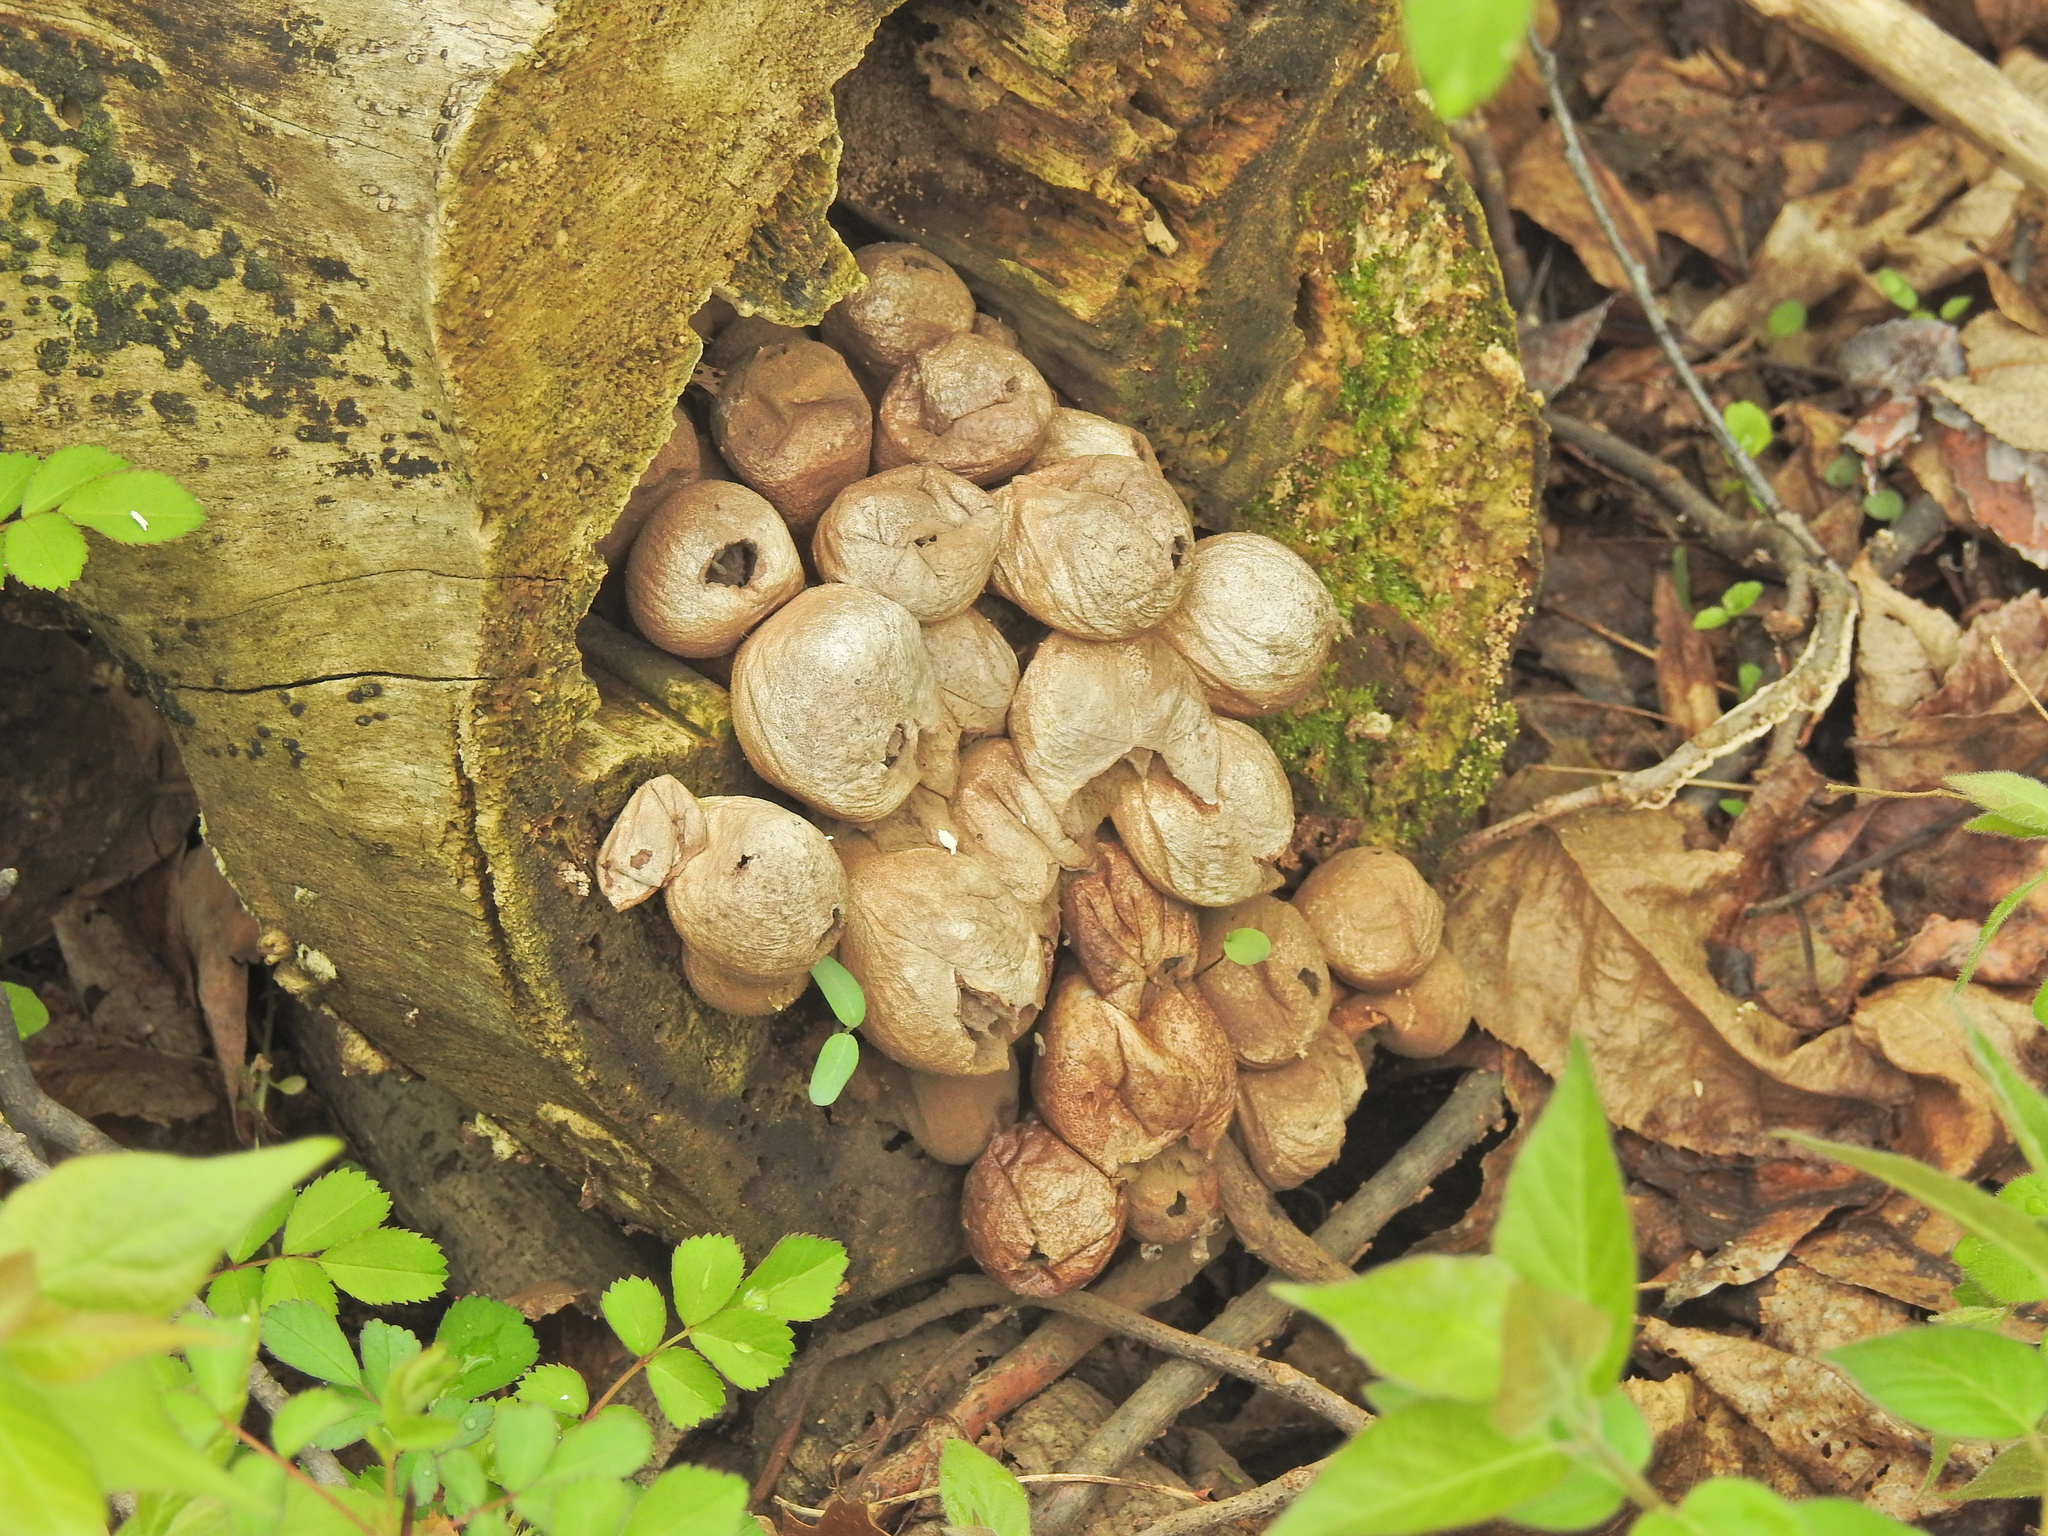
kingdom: Fungi
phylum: Basidiomycota
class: Agaricomycetes
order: Agaricales
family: Lycoperdaceae
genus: Apioperdon
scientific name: Apioperdon pyriforme
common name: Pear-shaped puffball
